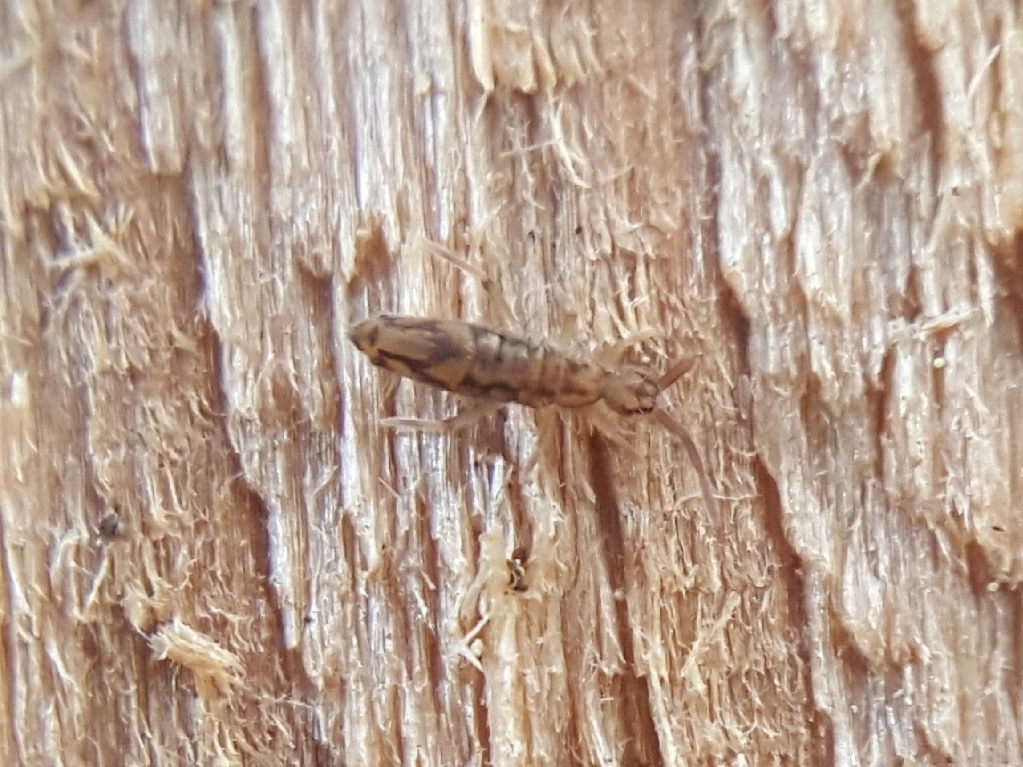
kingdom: Animalia
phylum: Arthropoda
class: Collembola
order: Entomobryomorpha
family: Entomobryidae
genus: Entomobrya
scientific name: Entomobrya katzi
